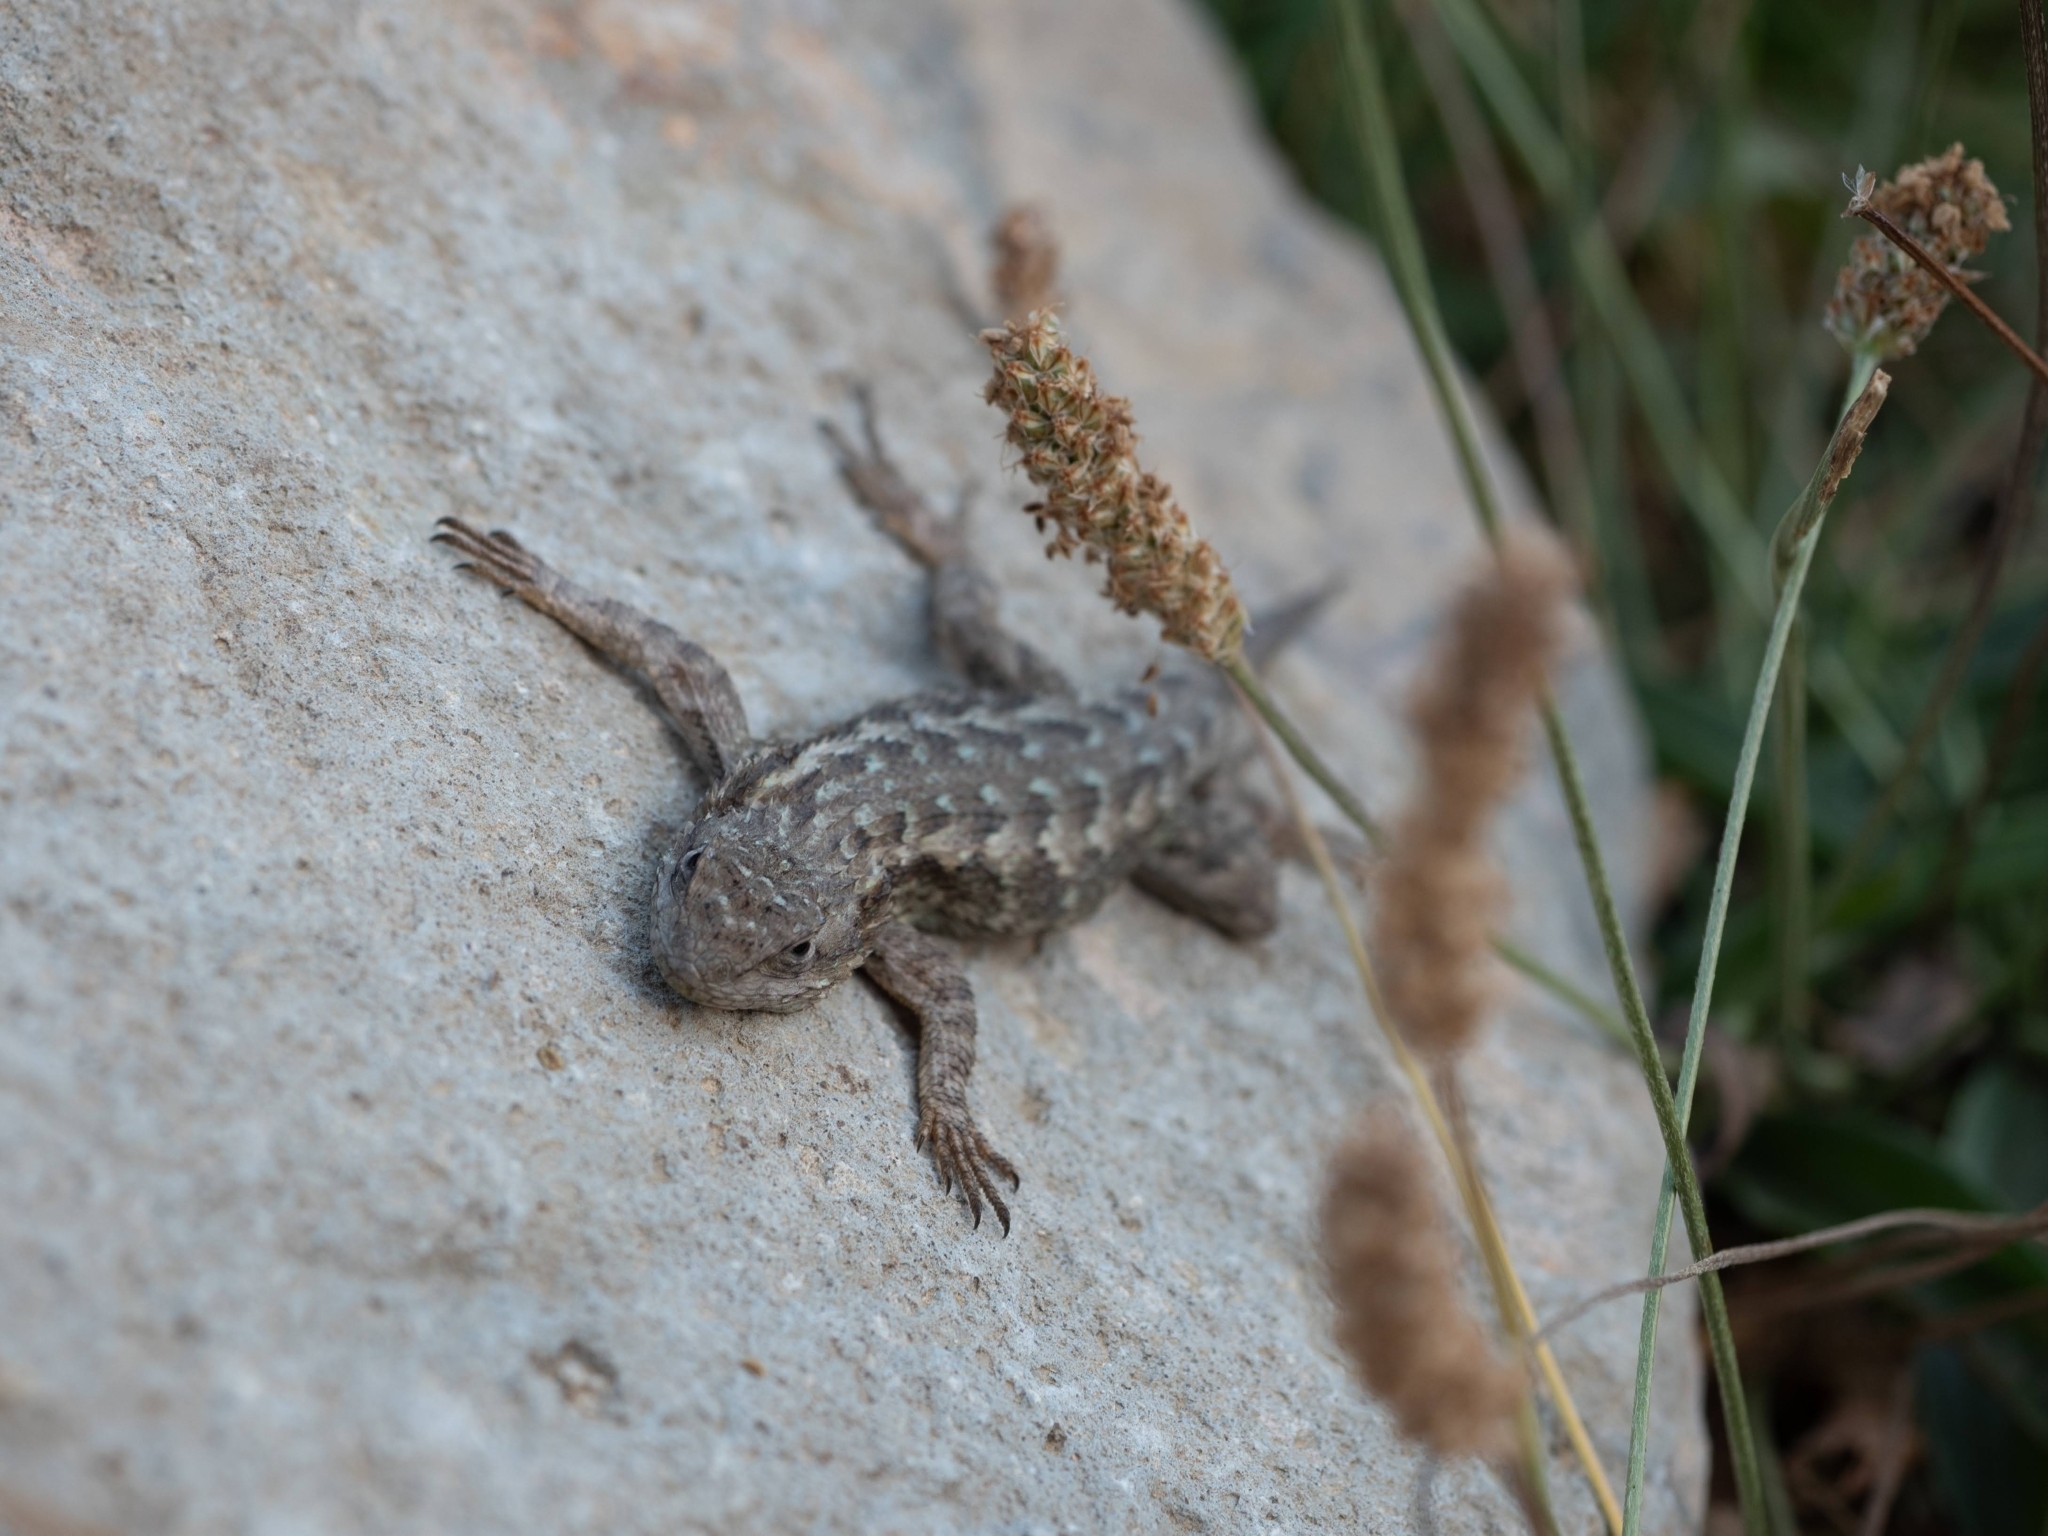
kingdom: Animalia
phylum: Chordata
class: Squamata
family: Phrynosomatidae
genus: Sceloporus
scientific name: Sceloporus occidentalis
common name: Western fence lizard
